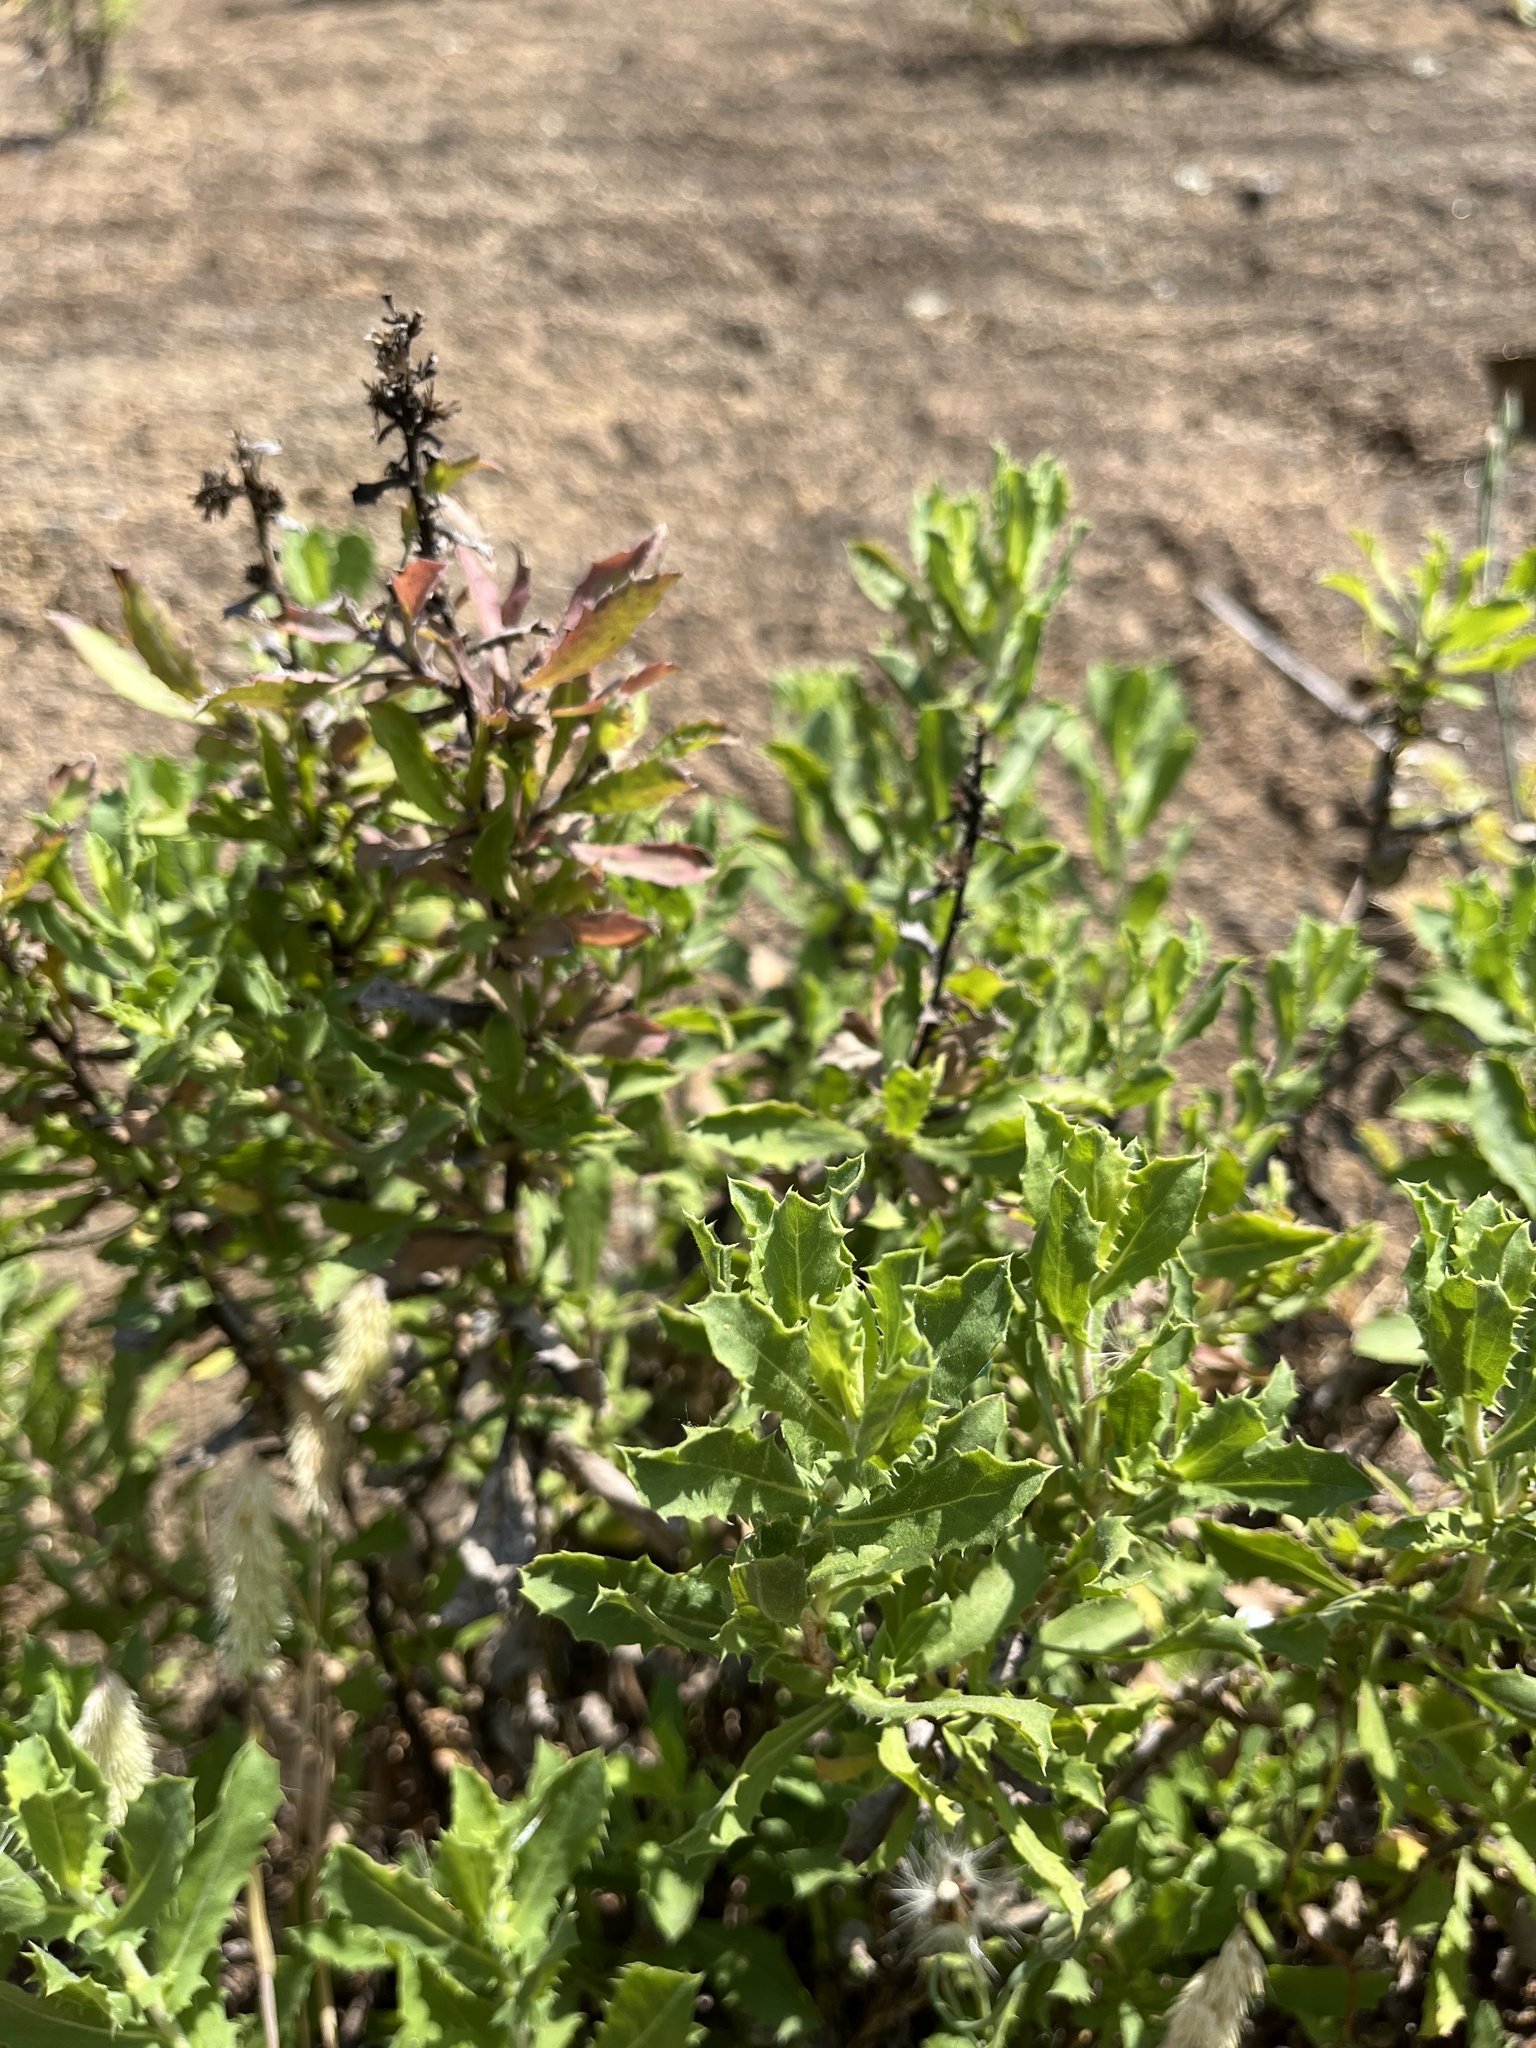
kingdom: Plantae
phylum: Tracheophyta
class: Magnoliopsida
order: Asterales
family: Asteraceae
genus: Isocoma
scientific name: Isocoma menziesii
